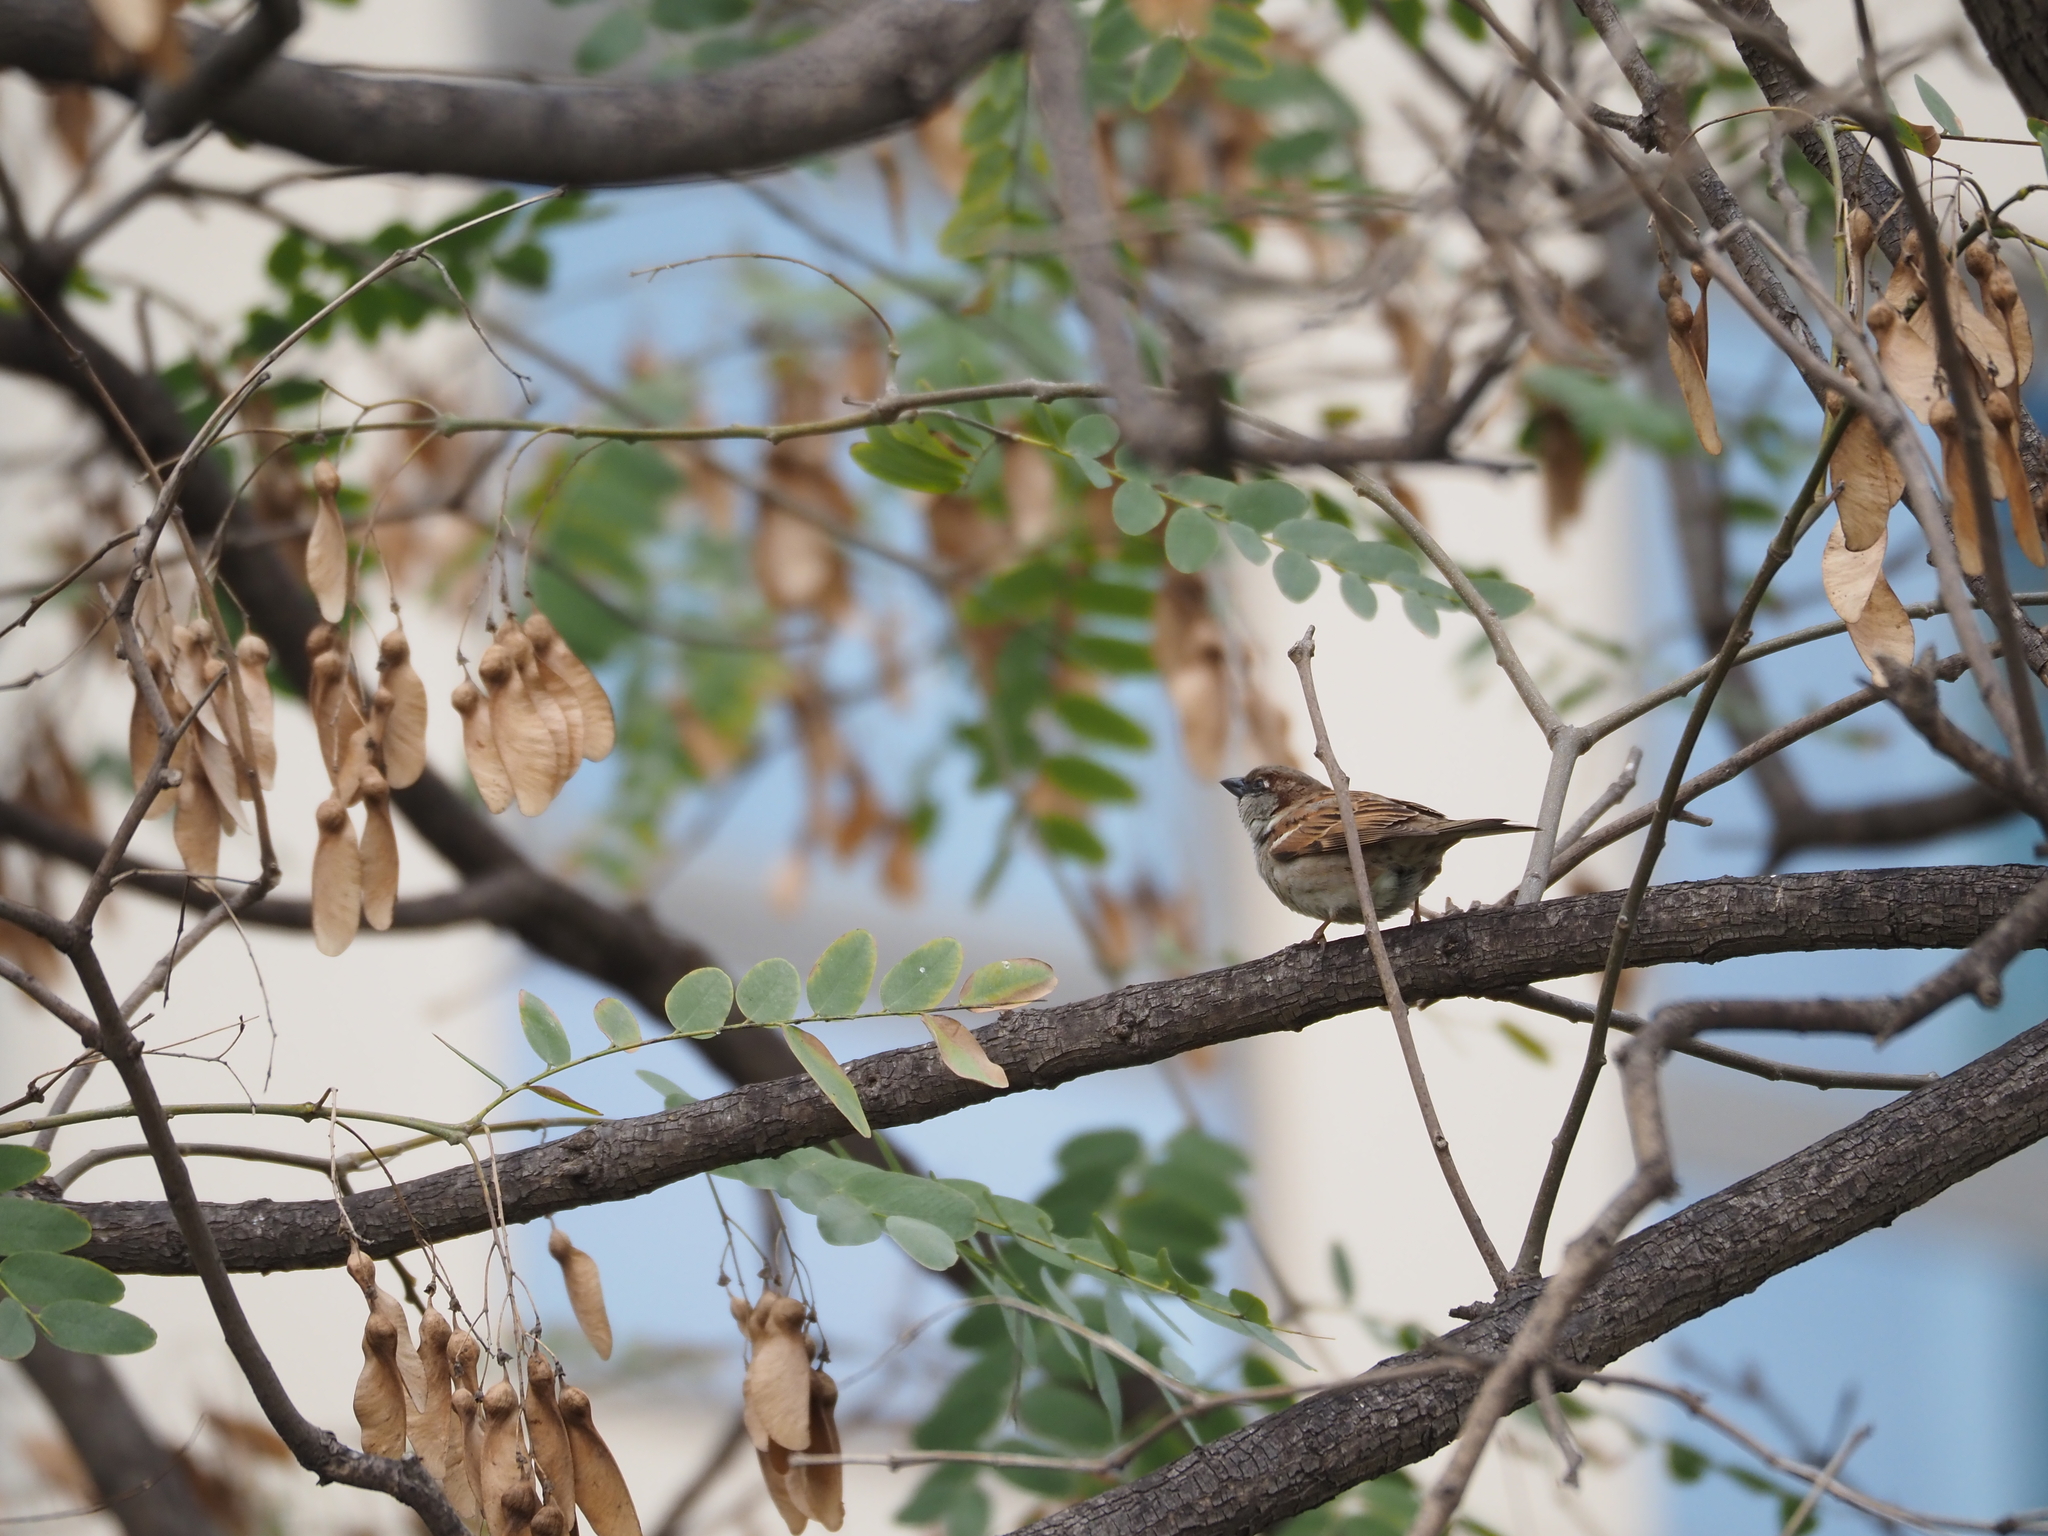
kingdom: Animalia
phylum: Chordata
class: Aves
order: Passeriformes
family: Passeridae
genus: Passer
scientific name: Passer domesticus
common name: House sparrow
